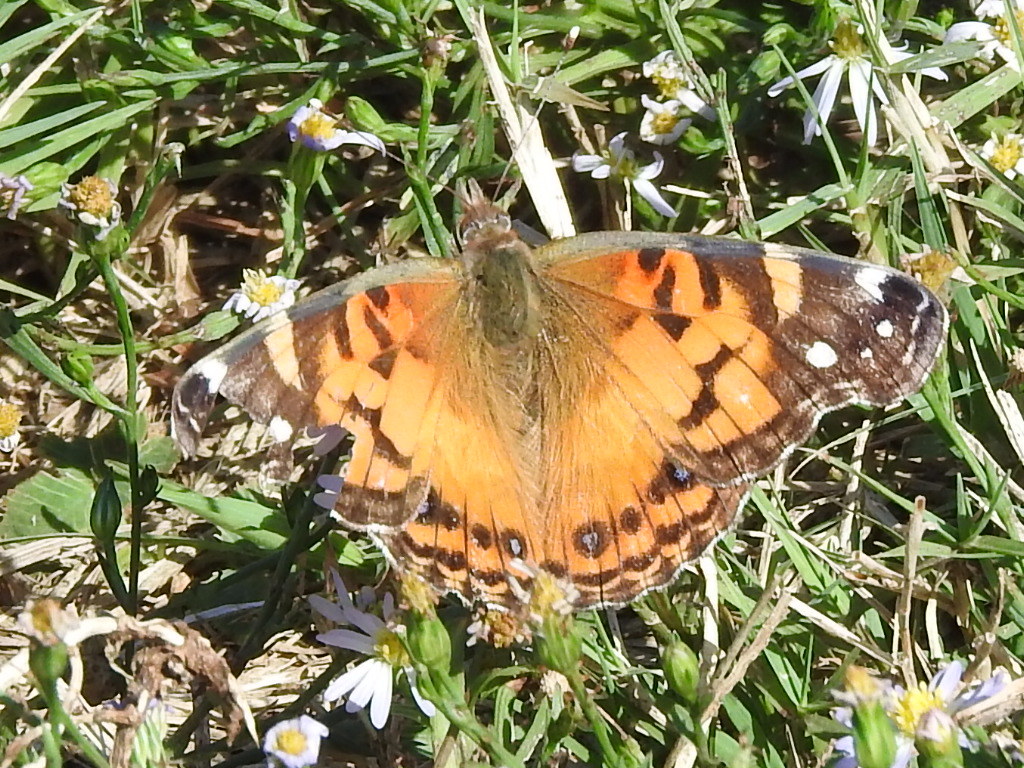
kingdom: Animalia
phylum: Arthropoda
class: Insecta
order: Lepidoptera
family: Nymphalidae
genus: Vanessa
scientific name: Vanessa virginiensis
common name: American lady
